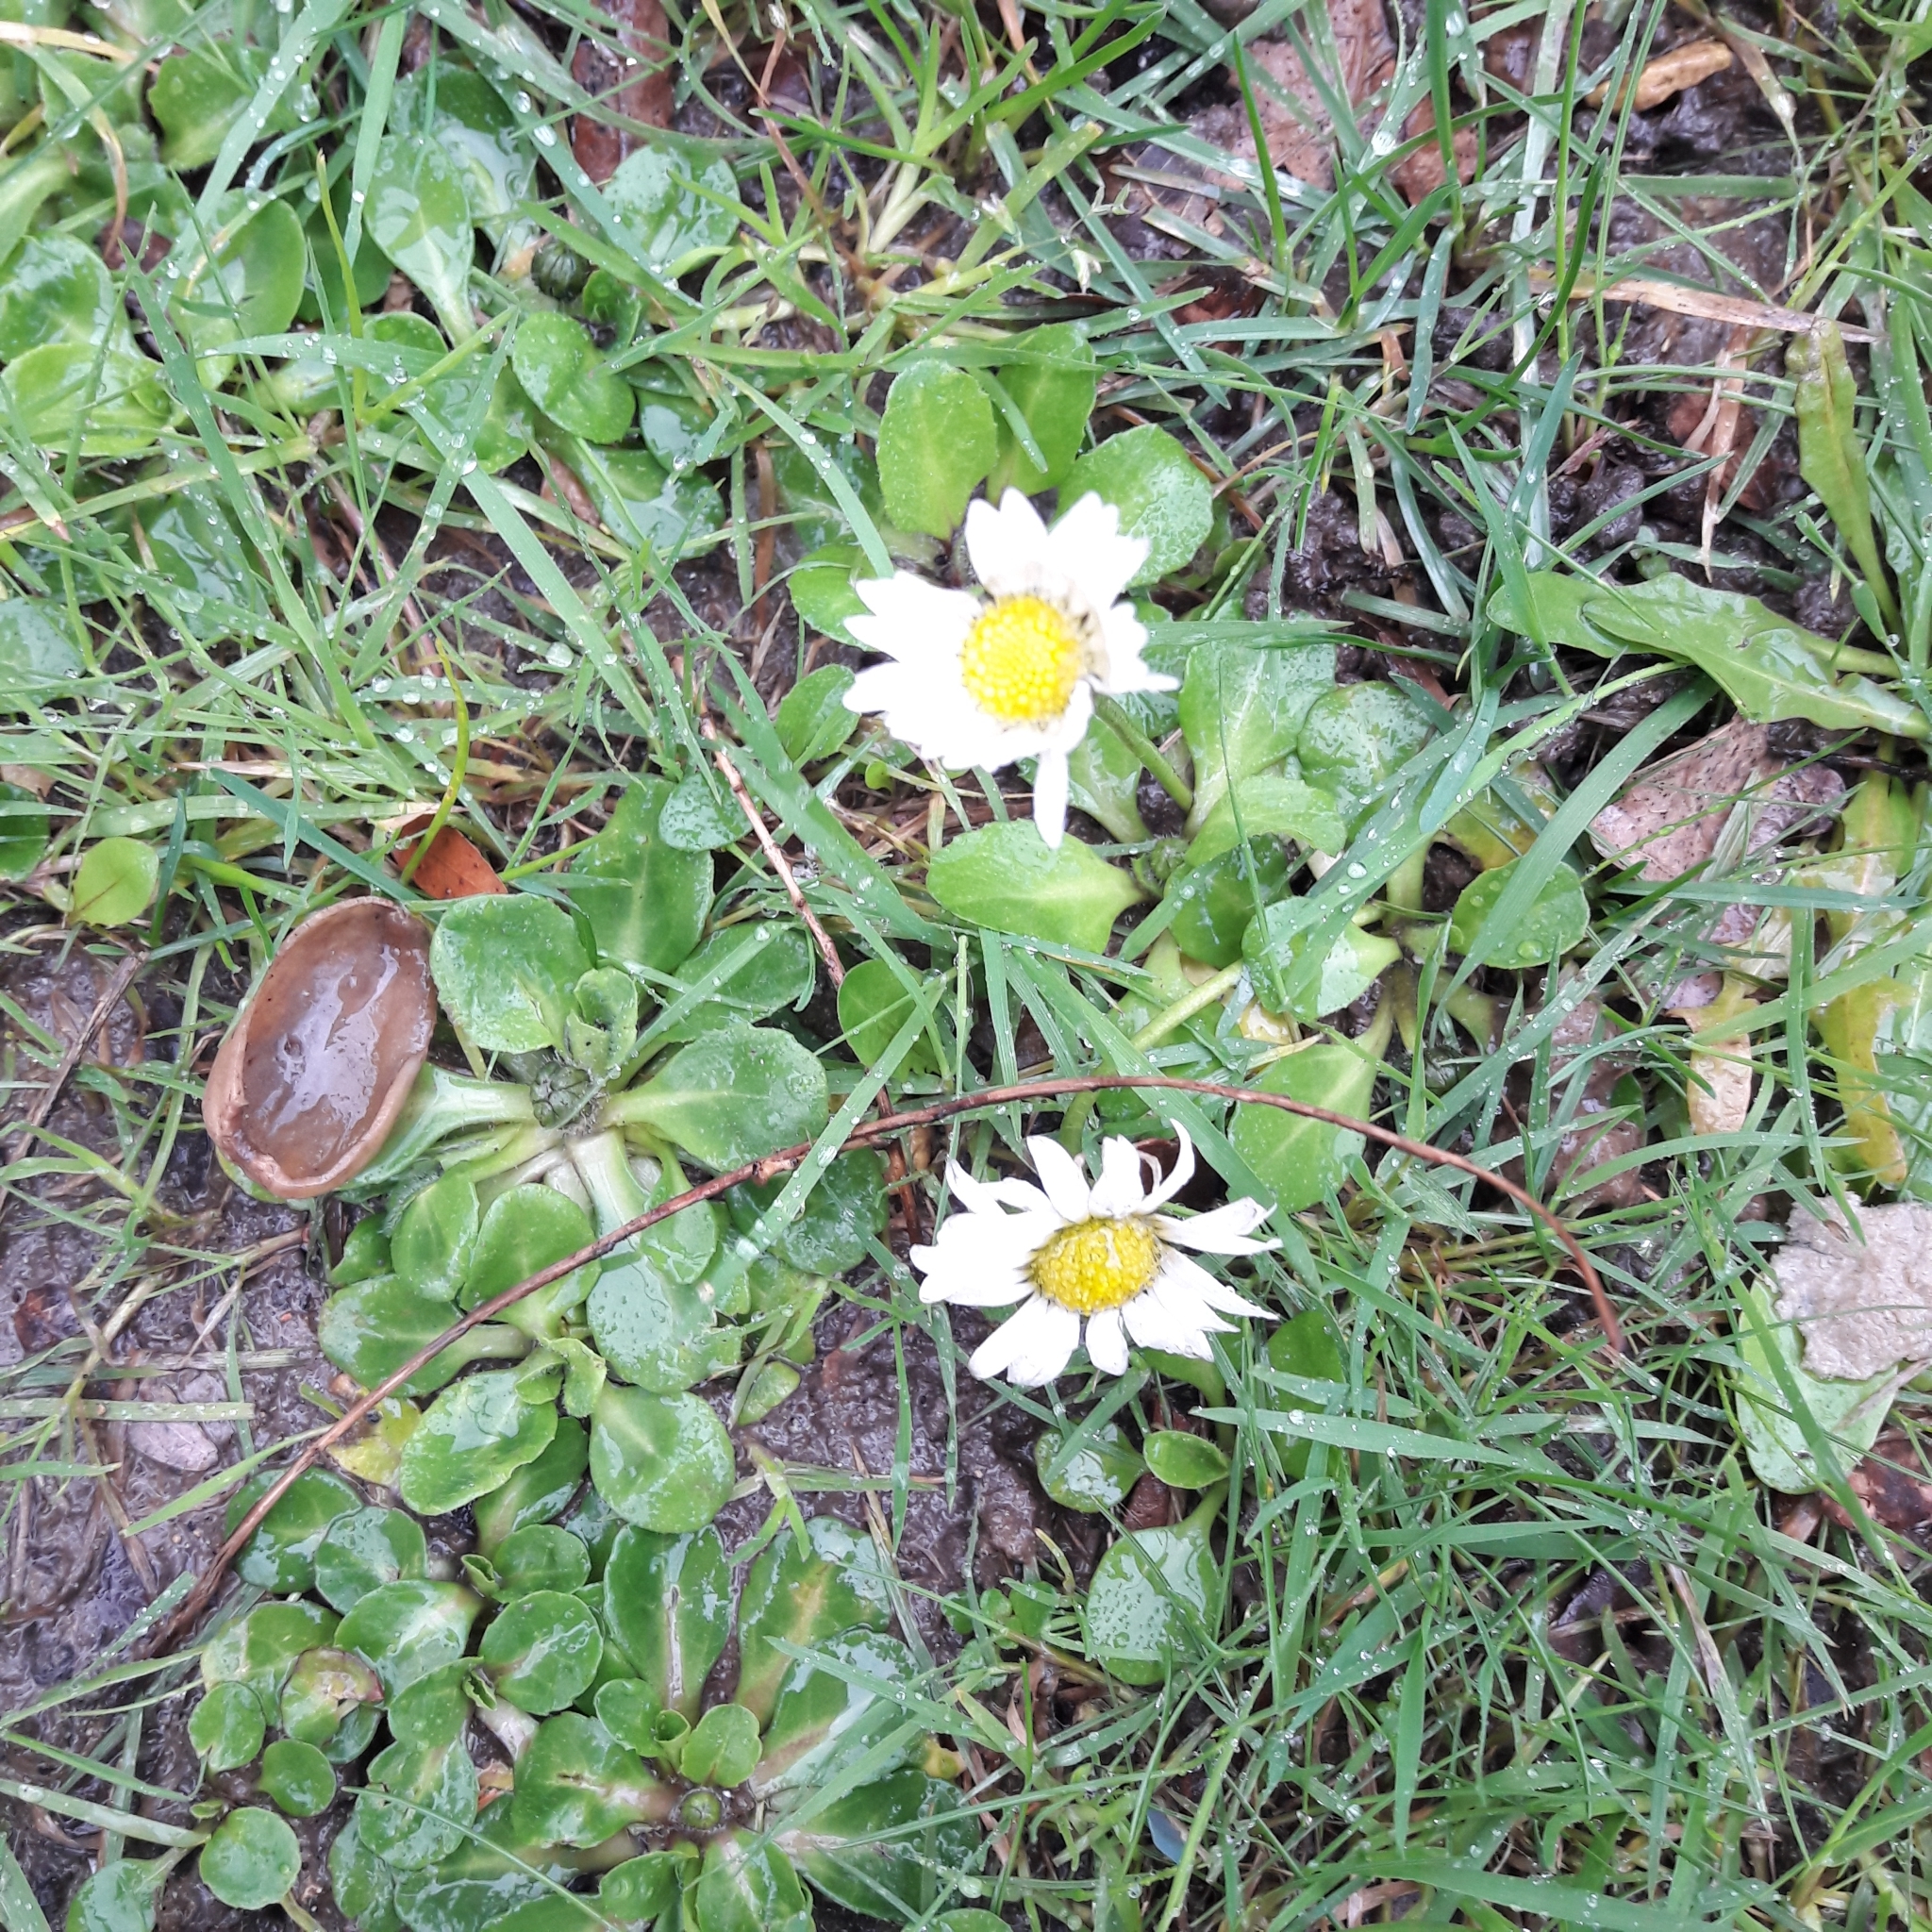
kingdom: Plantae
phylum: Tracheophyta
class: Magnoliopsida
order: Asterales
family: Asteraceae
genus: Bellis
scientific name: Bellis perennis
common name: Lawndaisy
